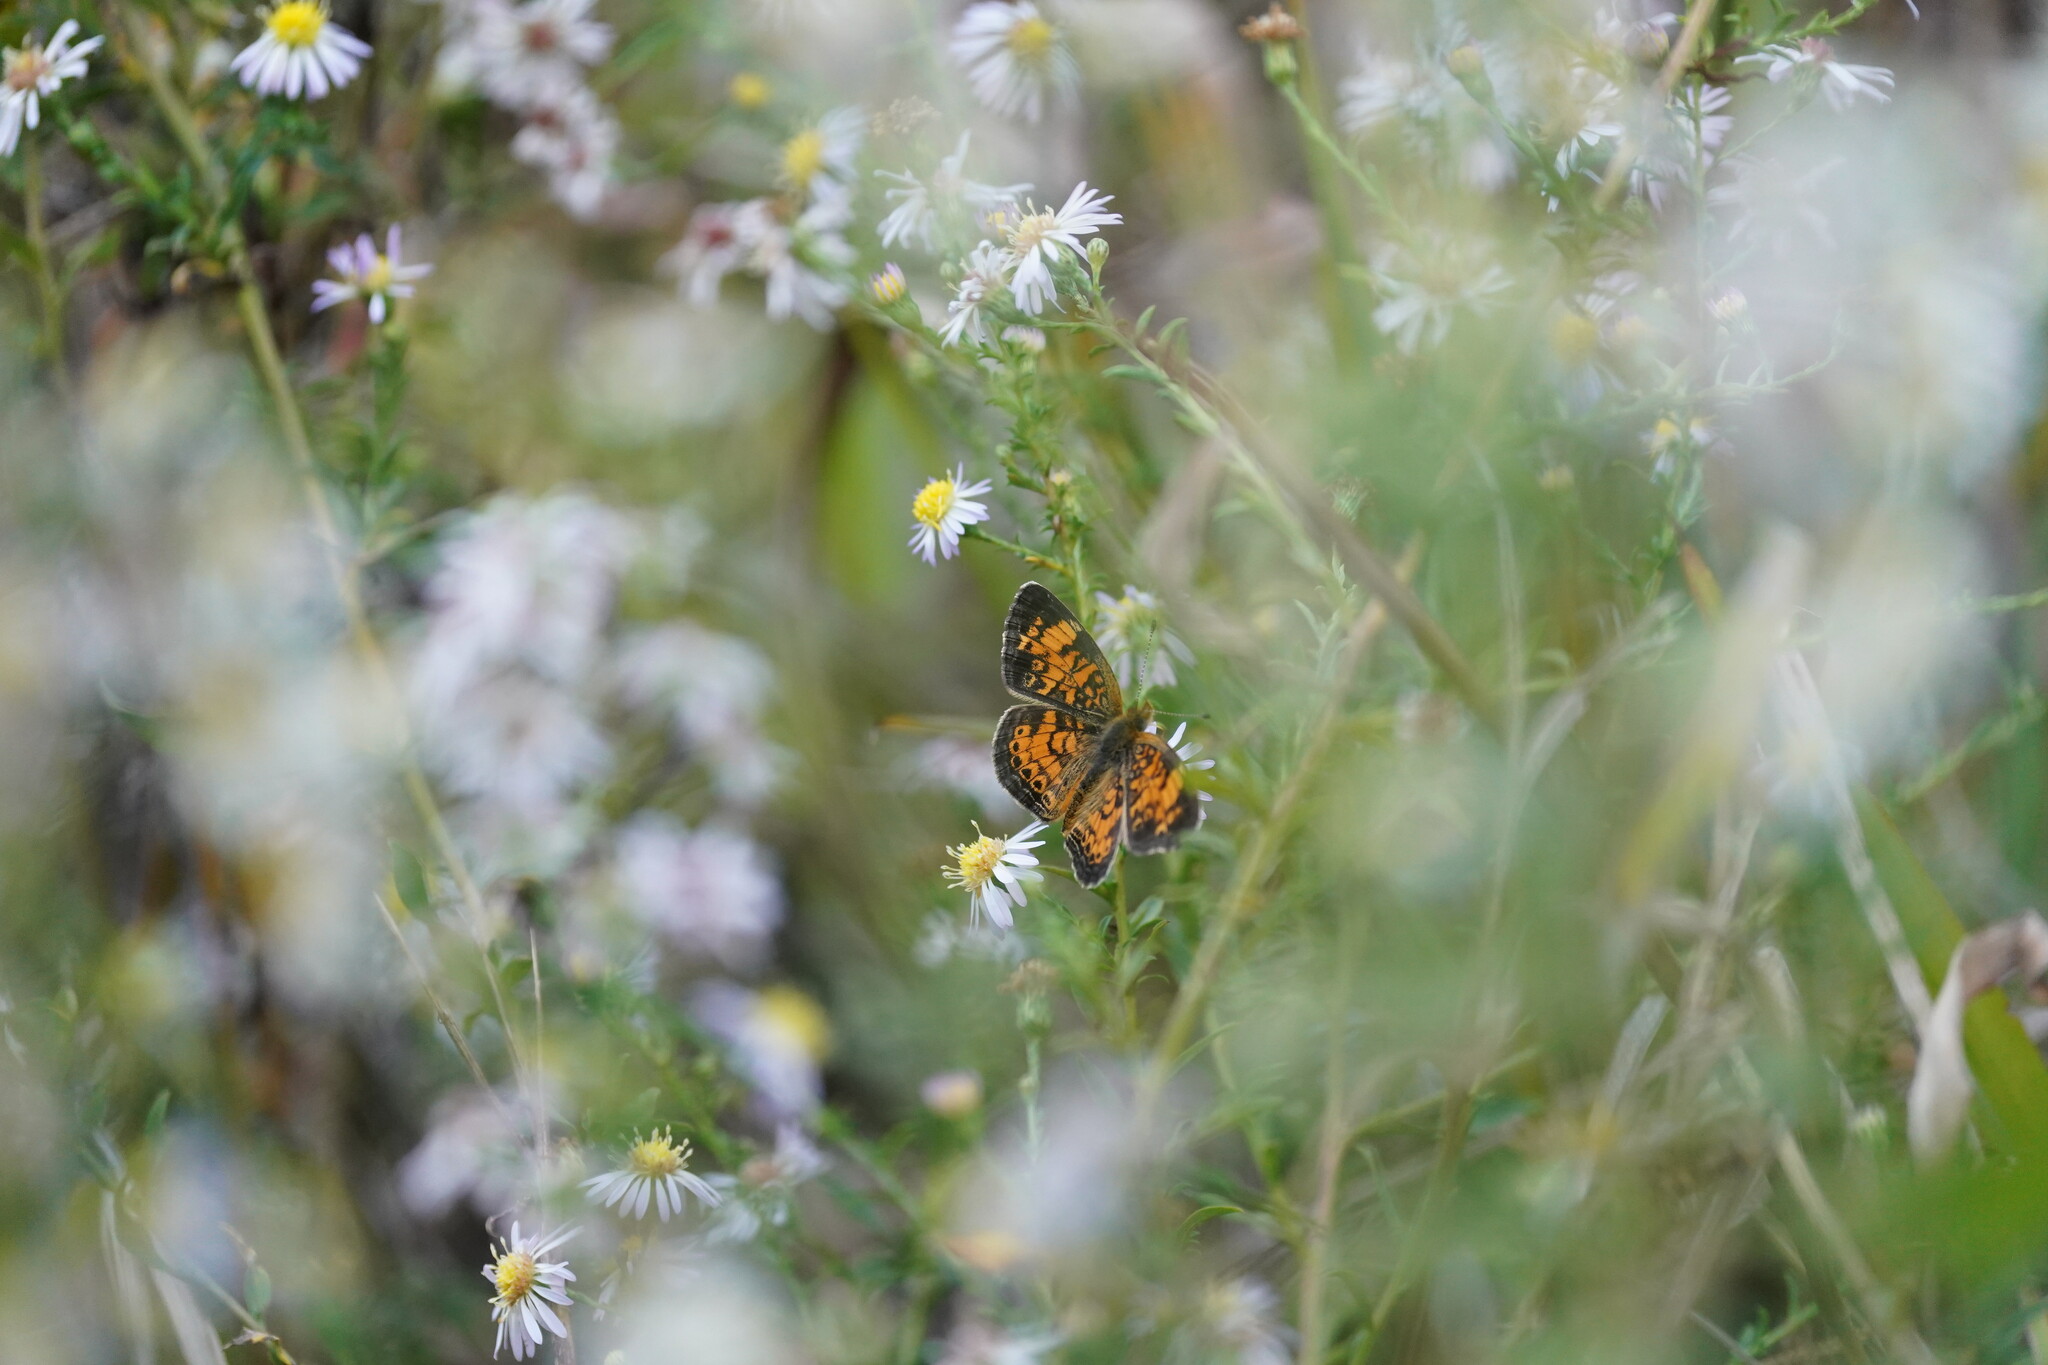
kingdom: Animalia
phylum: Arthropoda
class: Insecta
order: Lepidoptera
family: Nymphalidae
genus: Phyciodes
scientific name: Phyciodes tharos
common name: Pearl crescent
